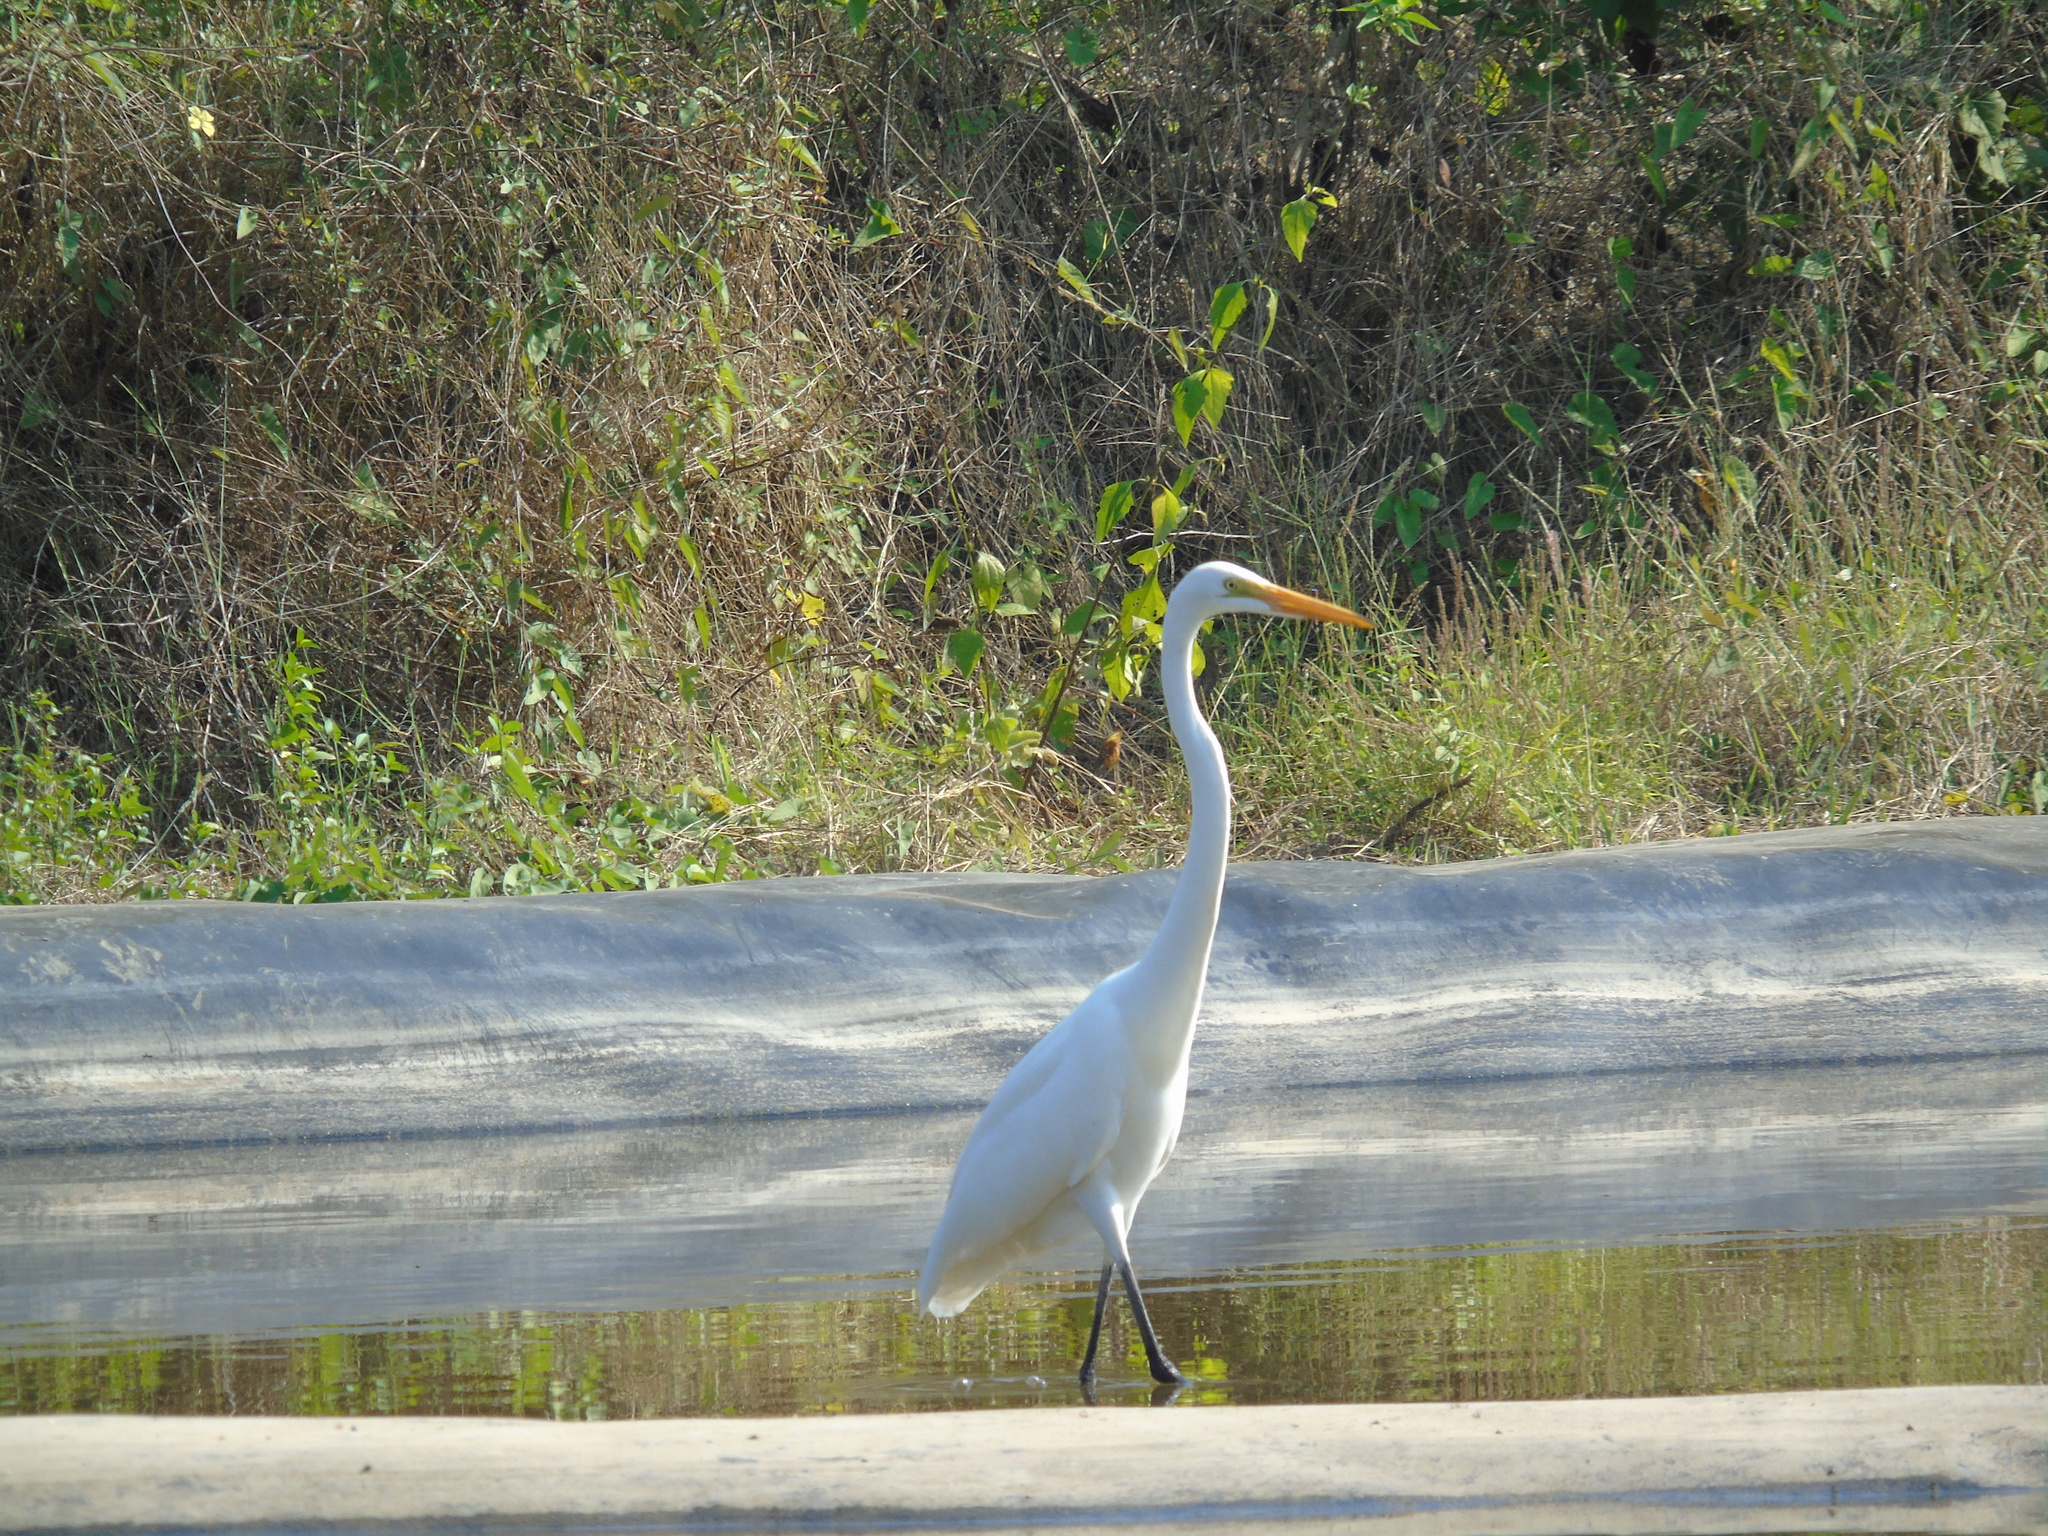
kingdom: Animalia
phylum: Chordata
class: Aves
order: Pelecaniformes
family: Ardeidae
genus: Ardea
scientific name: Ardea alba
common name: Great egret
